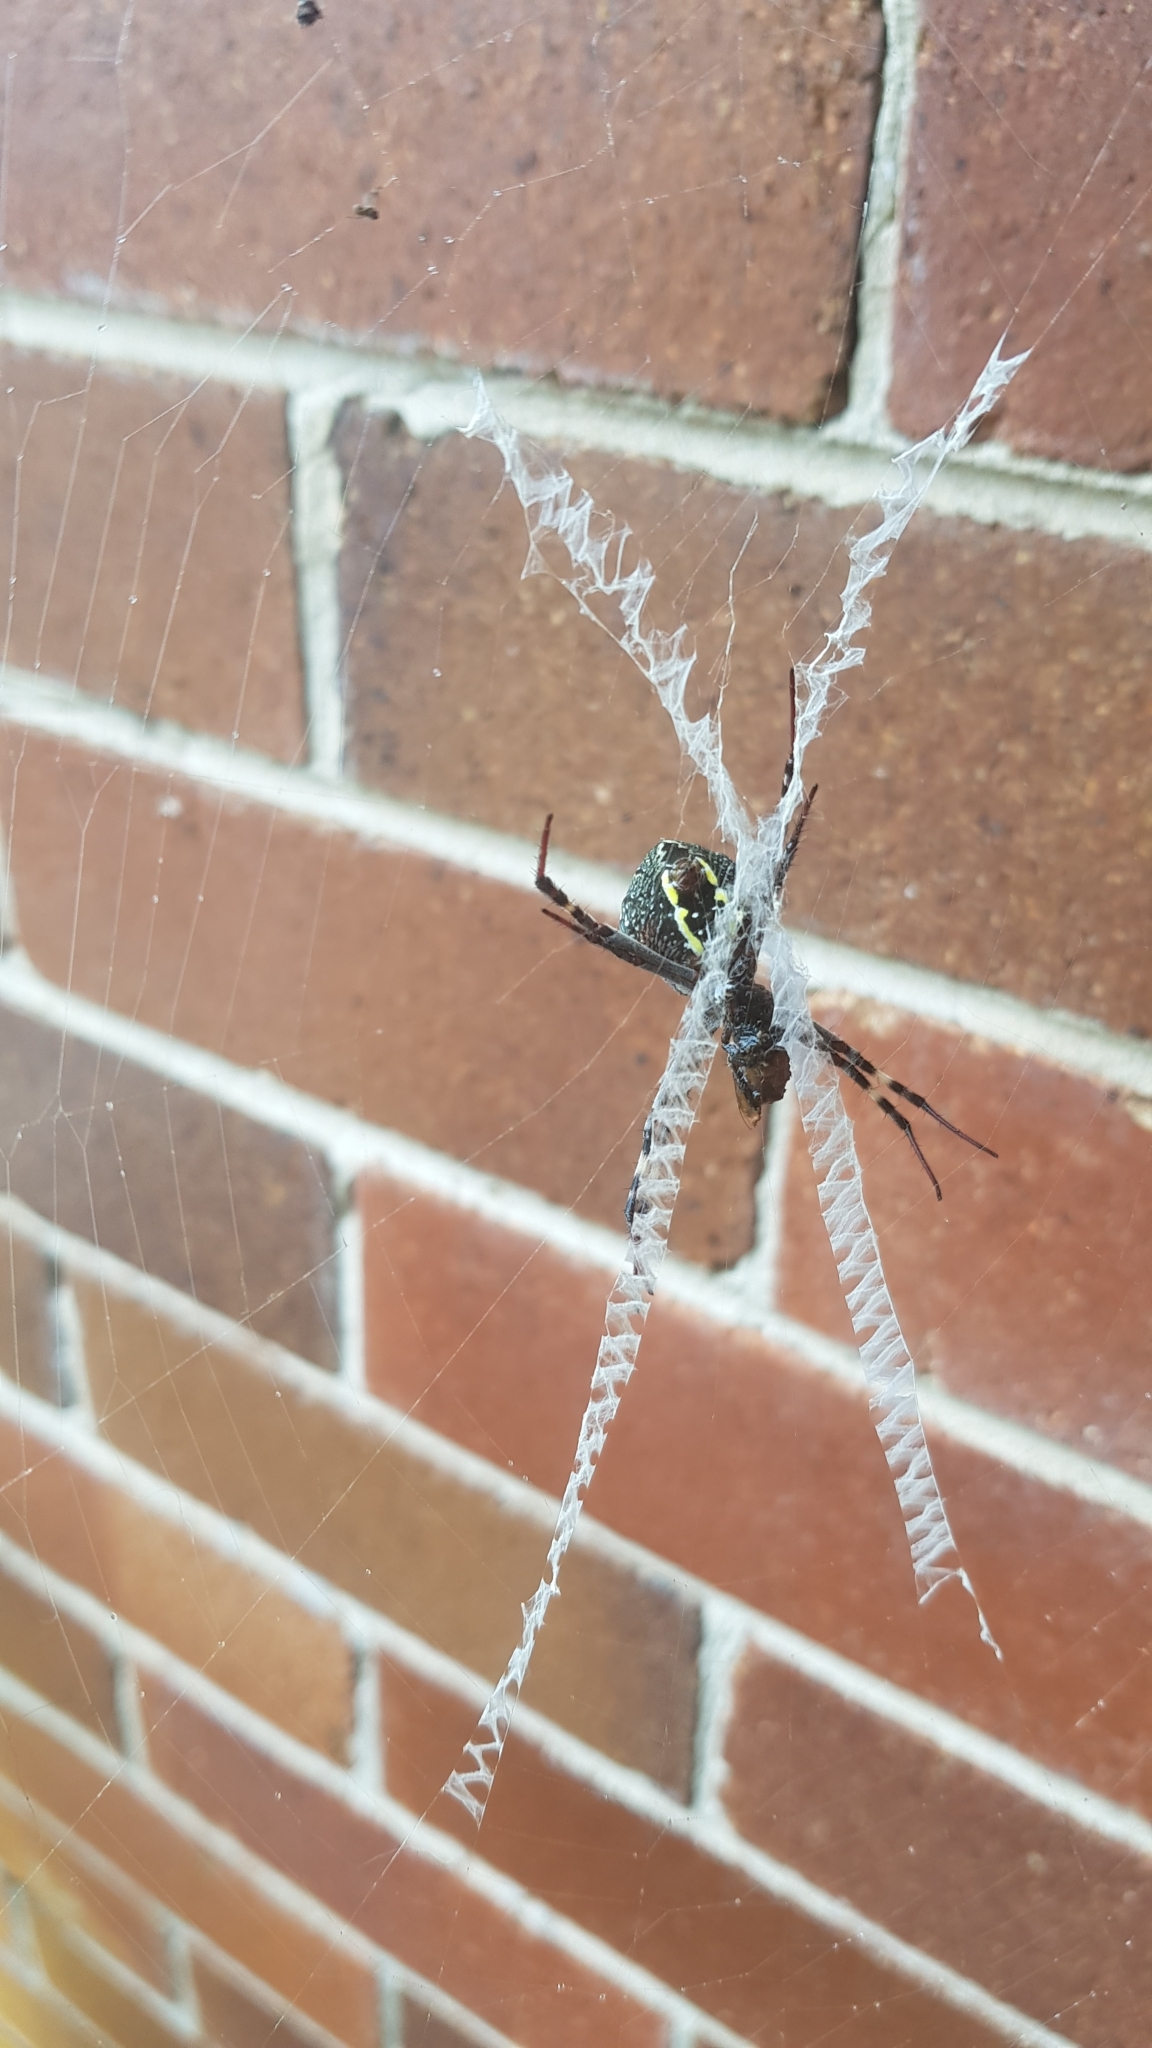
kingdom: Animalia
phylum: Arthropoda
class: Arachnida
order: Araneae
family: Araneidae
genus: Argiope
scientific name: Argiope keyserlingi
